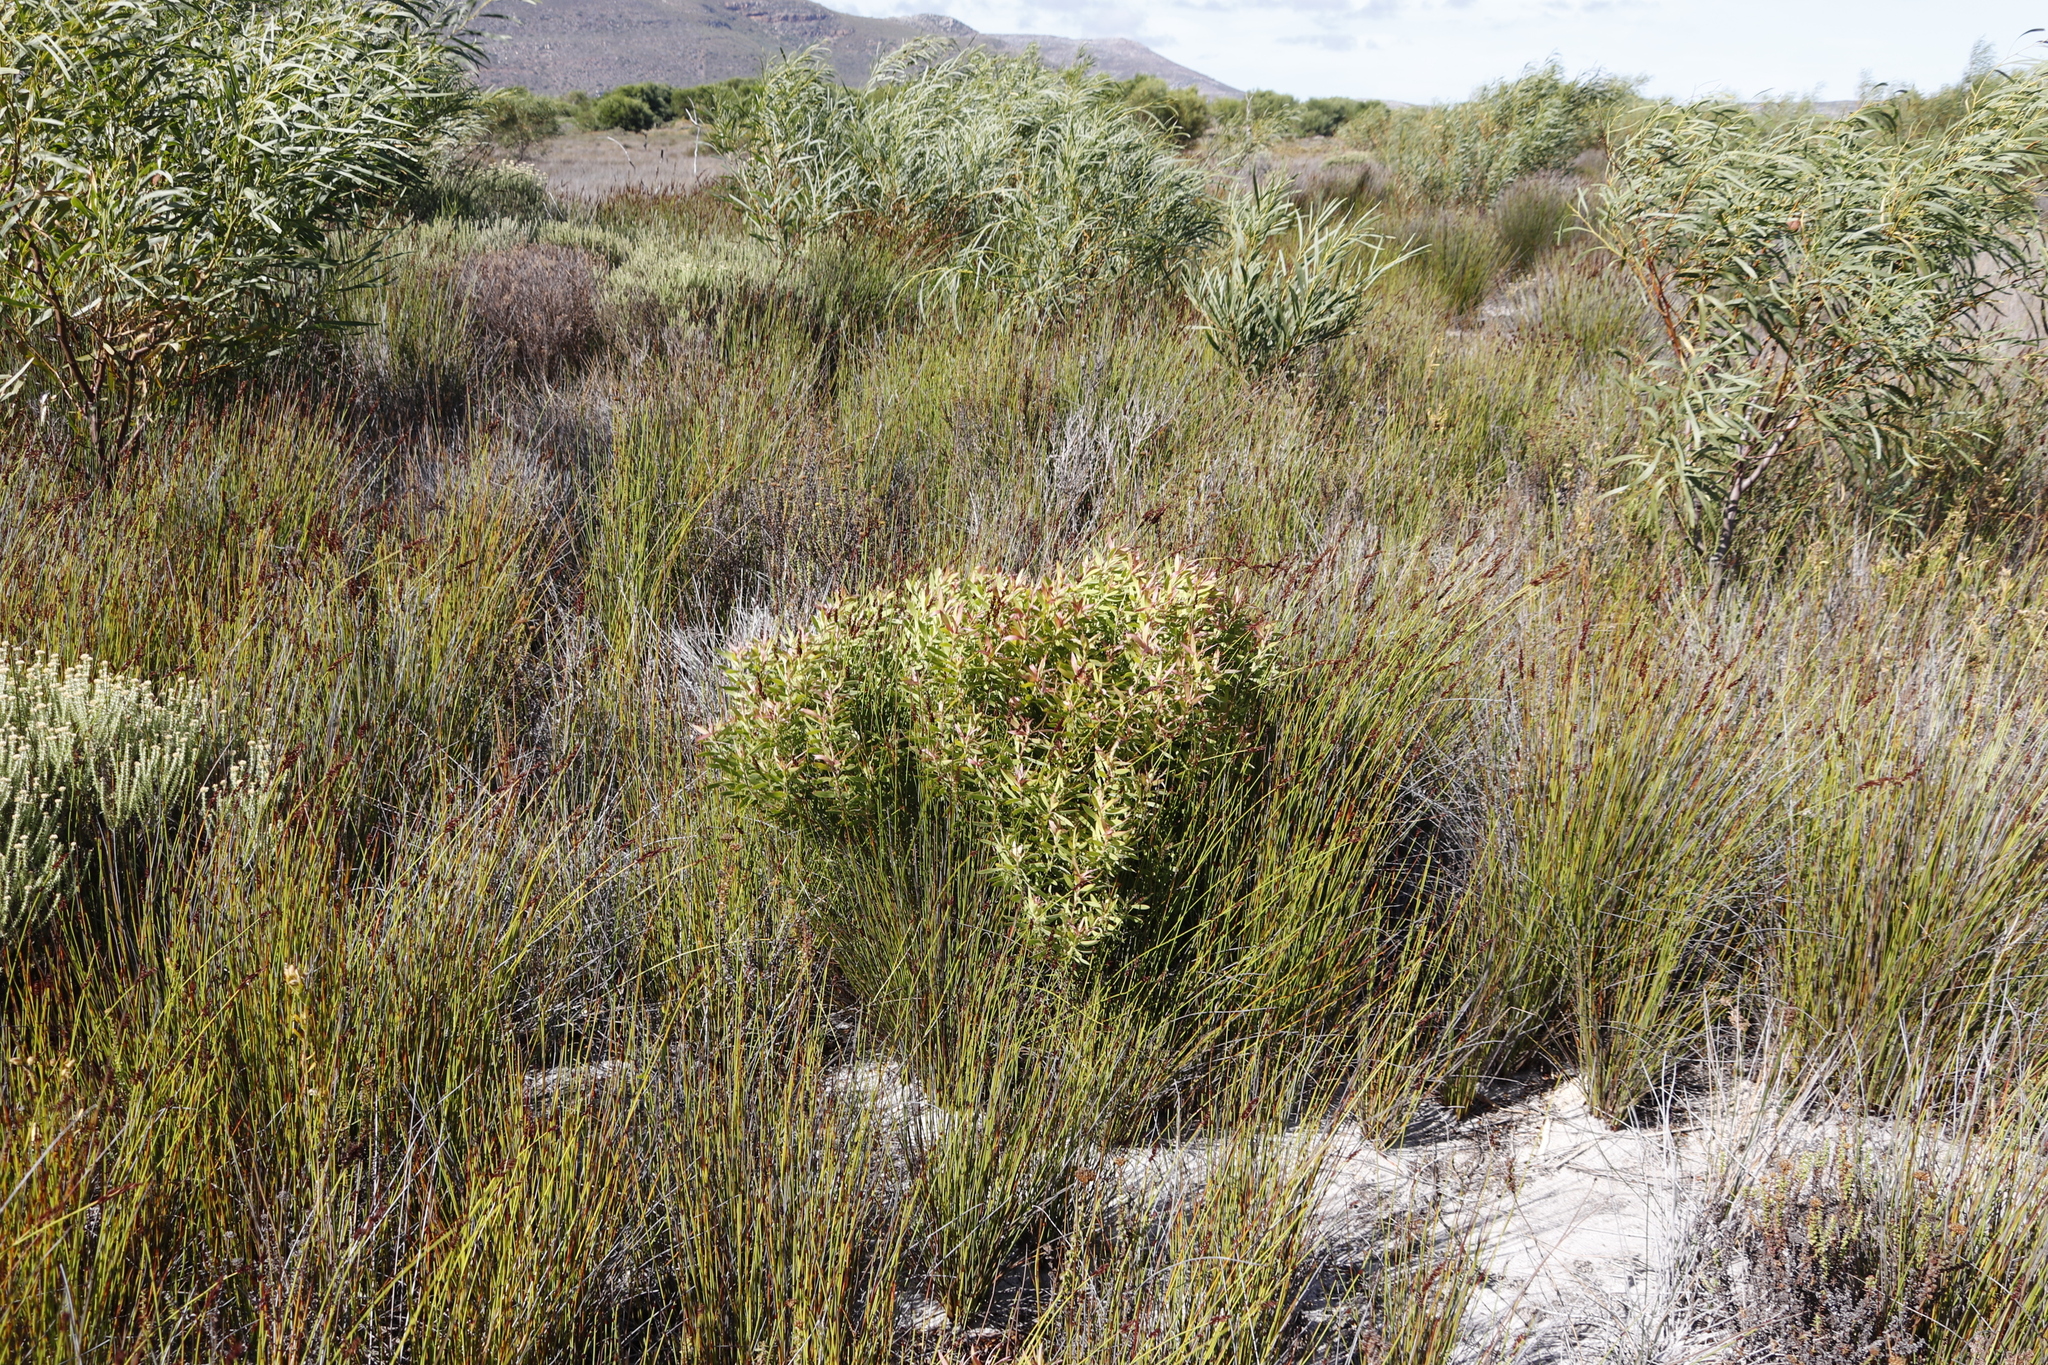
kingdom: Plantae
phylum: Tracheophyta
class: Magnoliopsida
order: Proteales
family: Proteaceae
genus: Leucadendron
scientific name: Leucadendron coniferum
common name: Dune conebush
